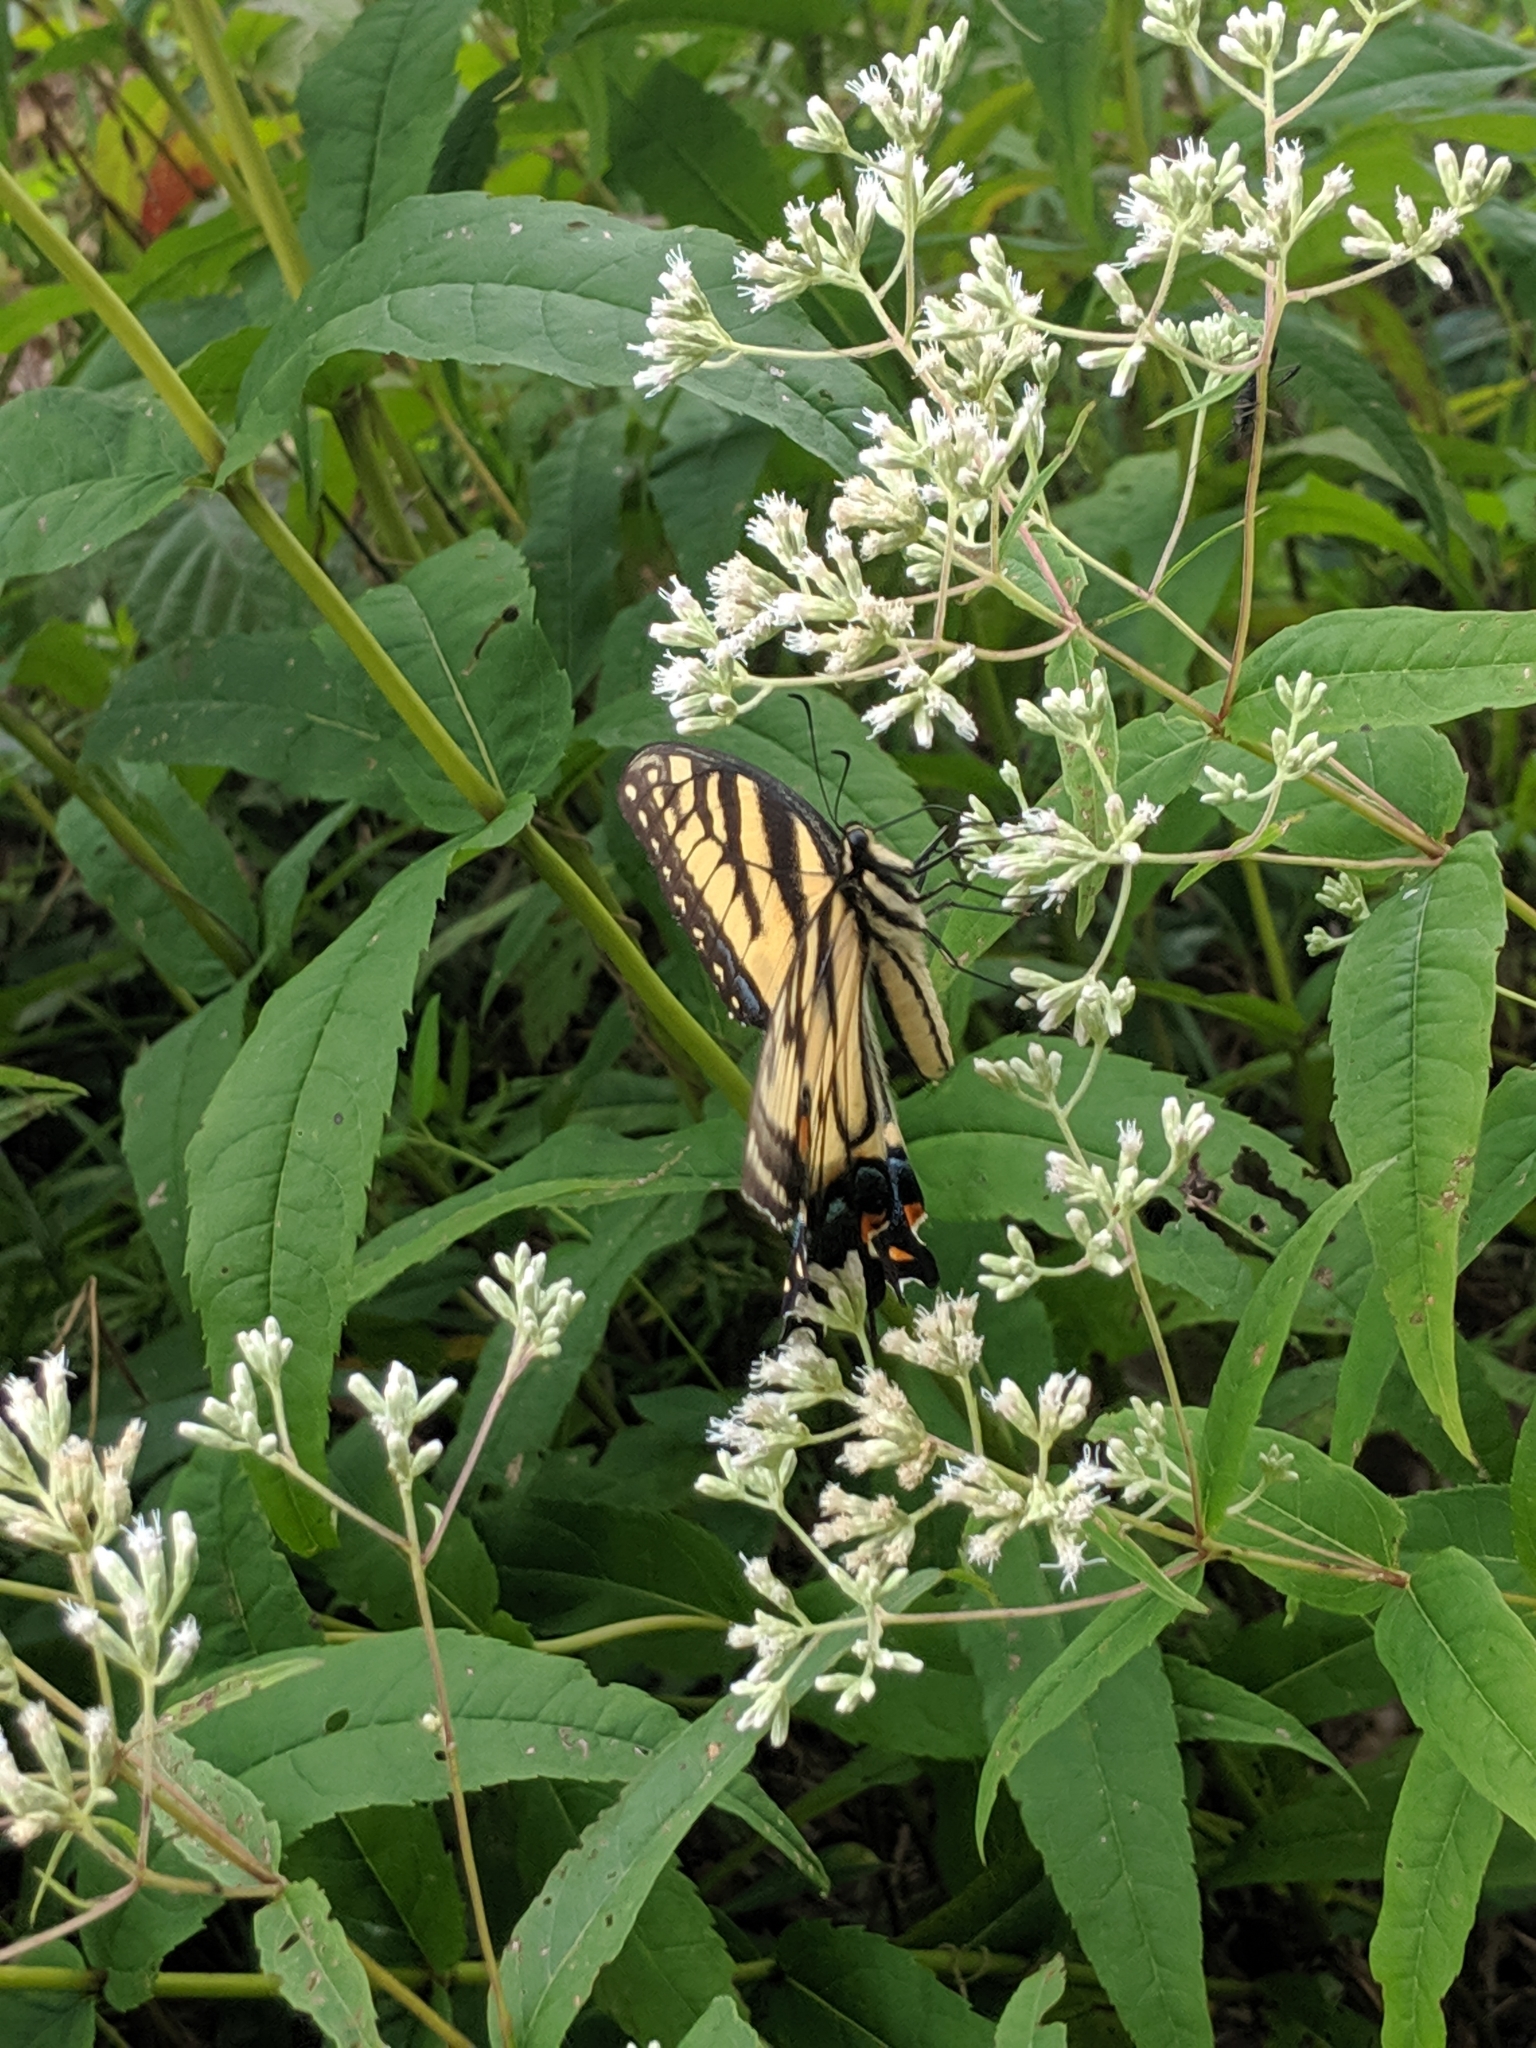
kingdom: Animalia
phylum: Arthropoda
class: Insecta
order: Lepidoptera
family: Papilionidae
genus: Papilio
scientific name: Papilio glaucus
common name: Tiger swallowtail
